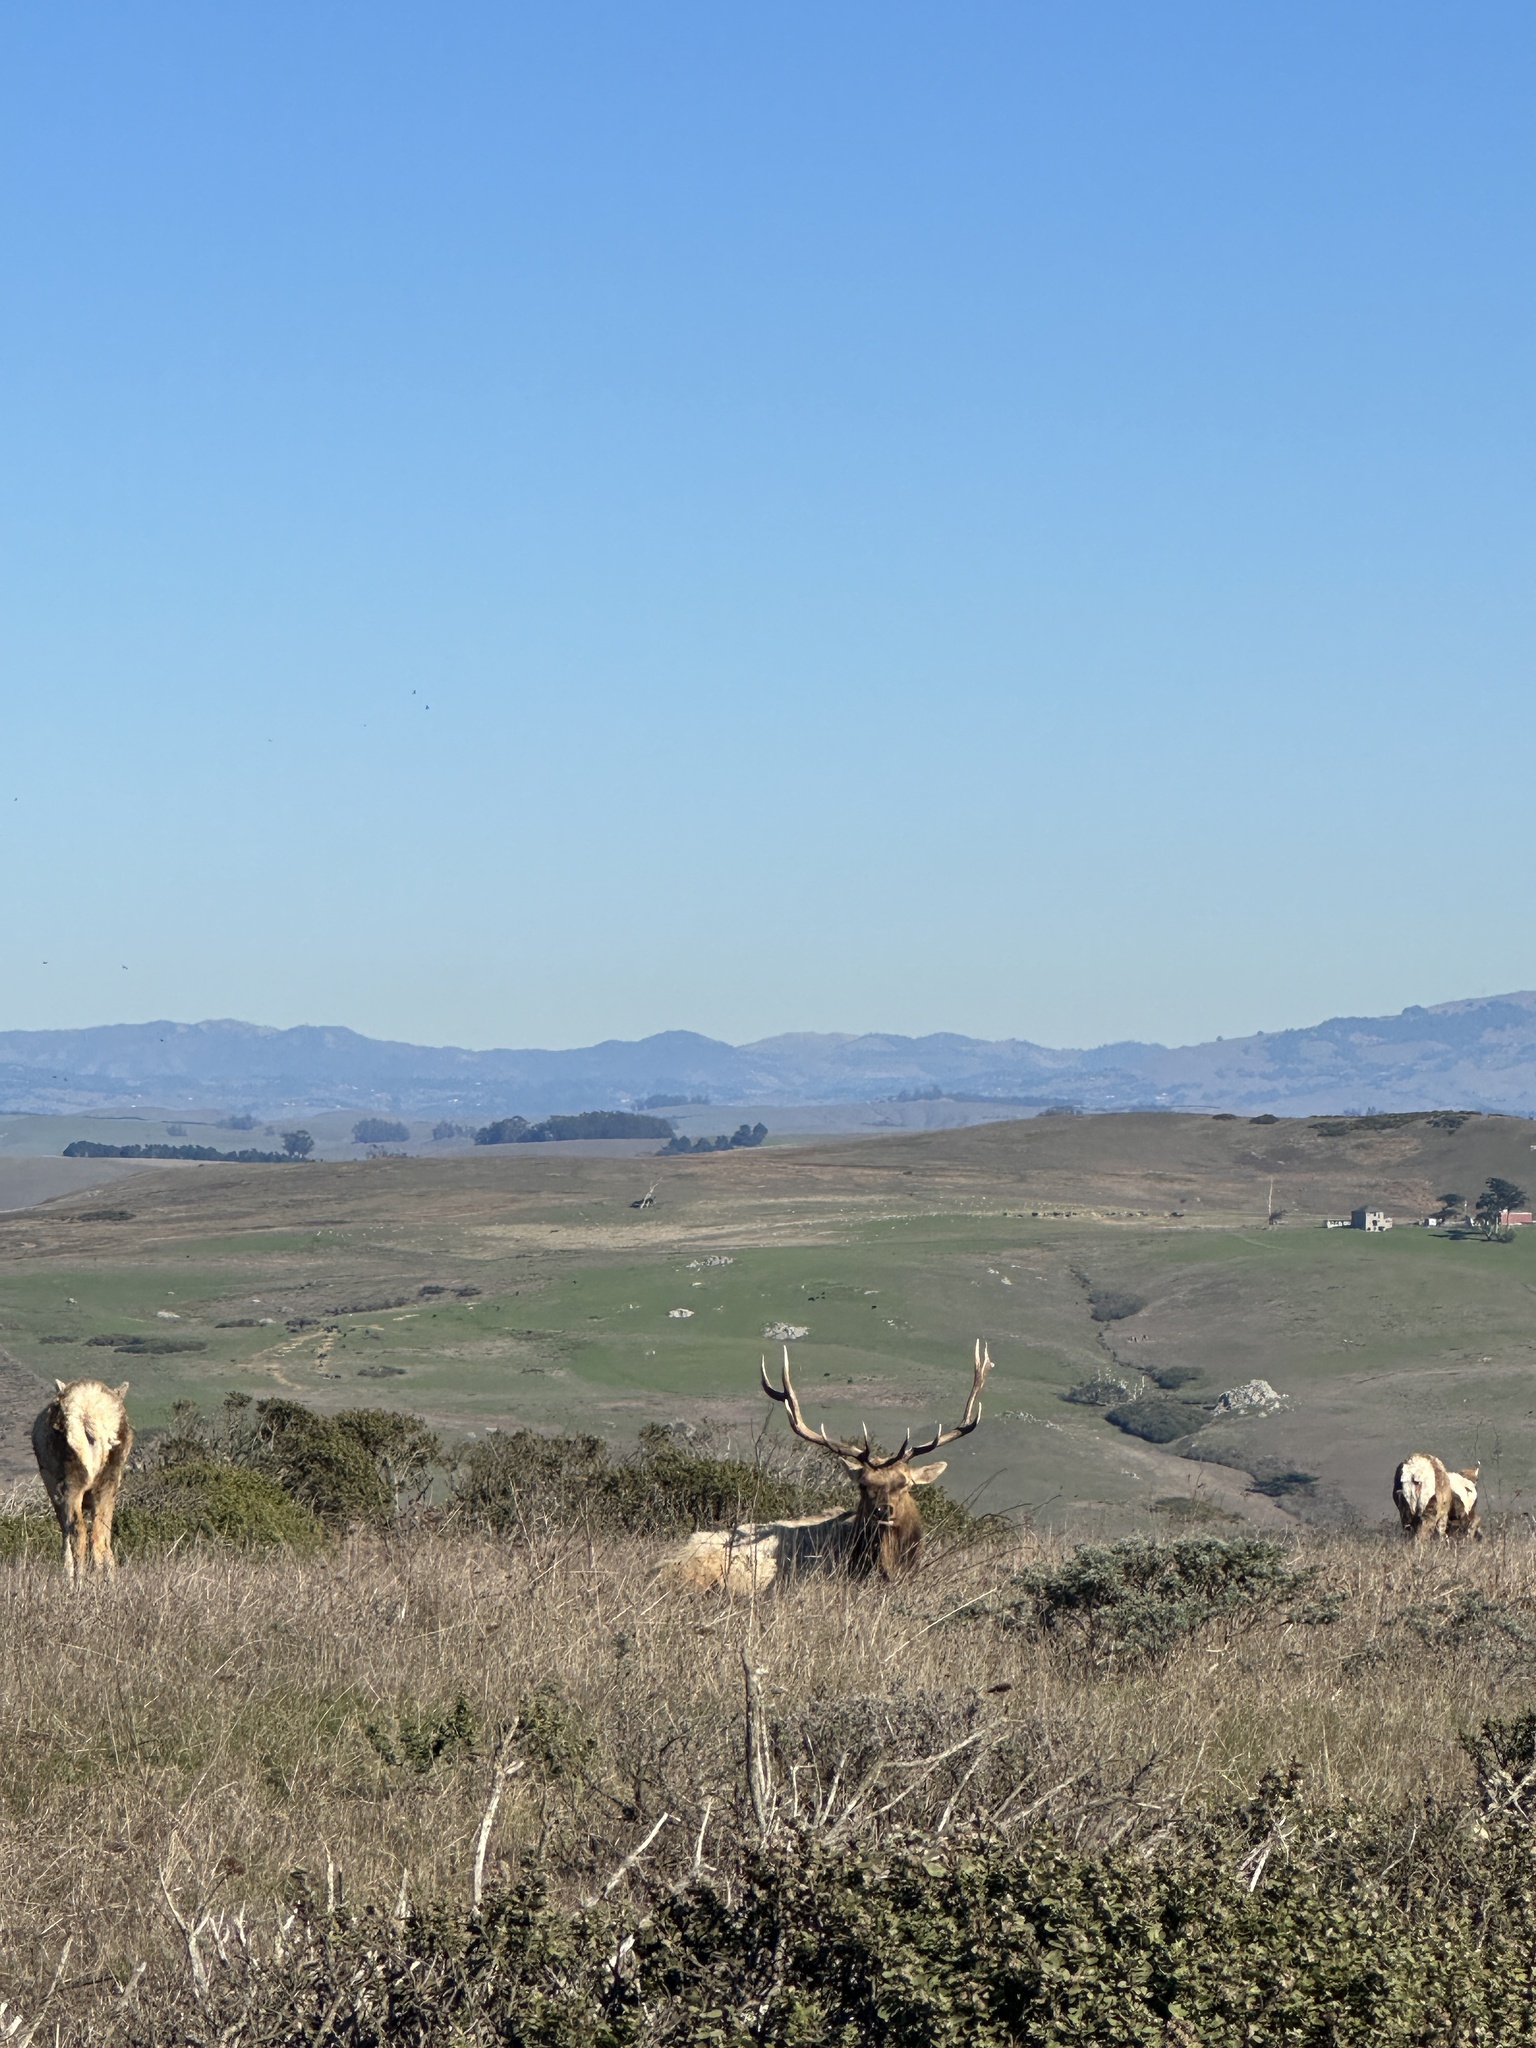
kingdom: Animalia
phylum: Chordata
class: Mammalia
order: Artiodactyla
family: Cervidae
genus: Cervus
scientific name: Cervus elaphus
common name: Red deer
